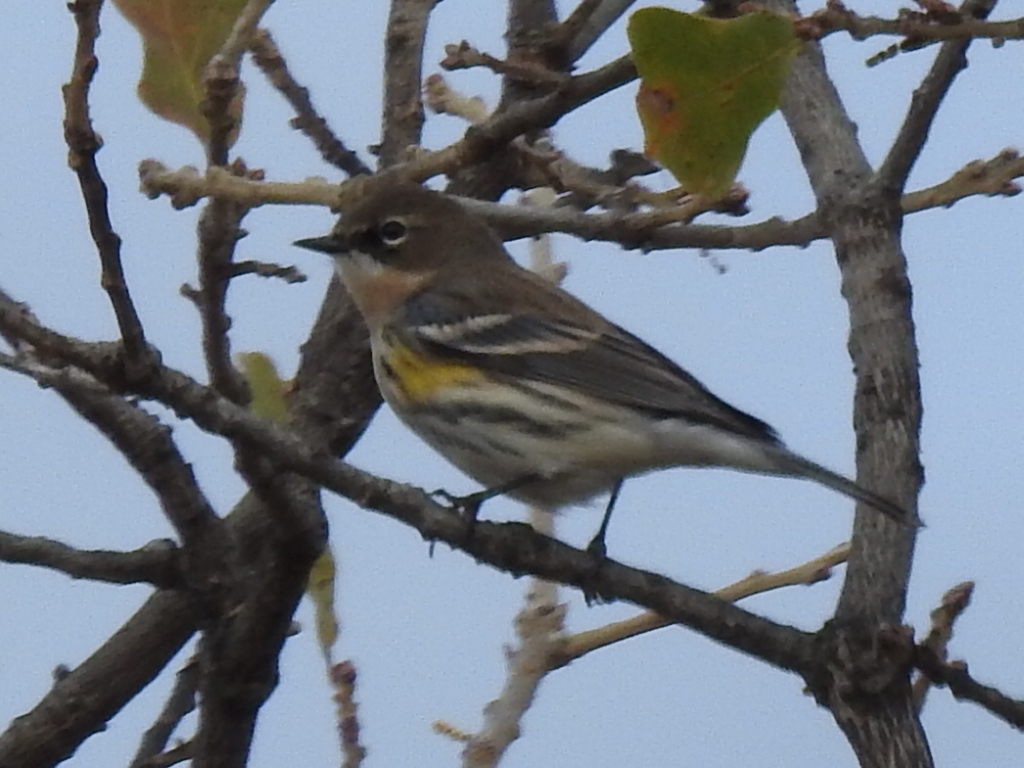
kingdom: Animalia
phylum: Chordata
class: Aves
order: Passeriformes
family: Parulidae
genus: Setophaga
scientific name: Setophaga coronata
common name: Myrtle warbler
